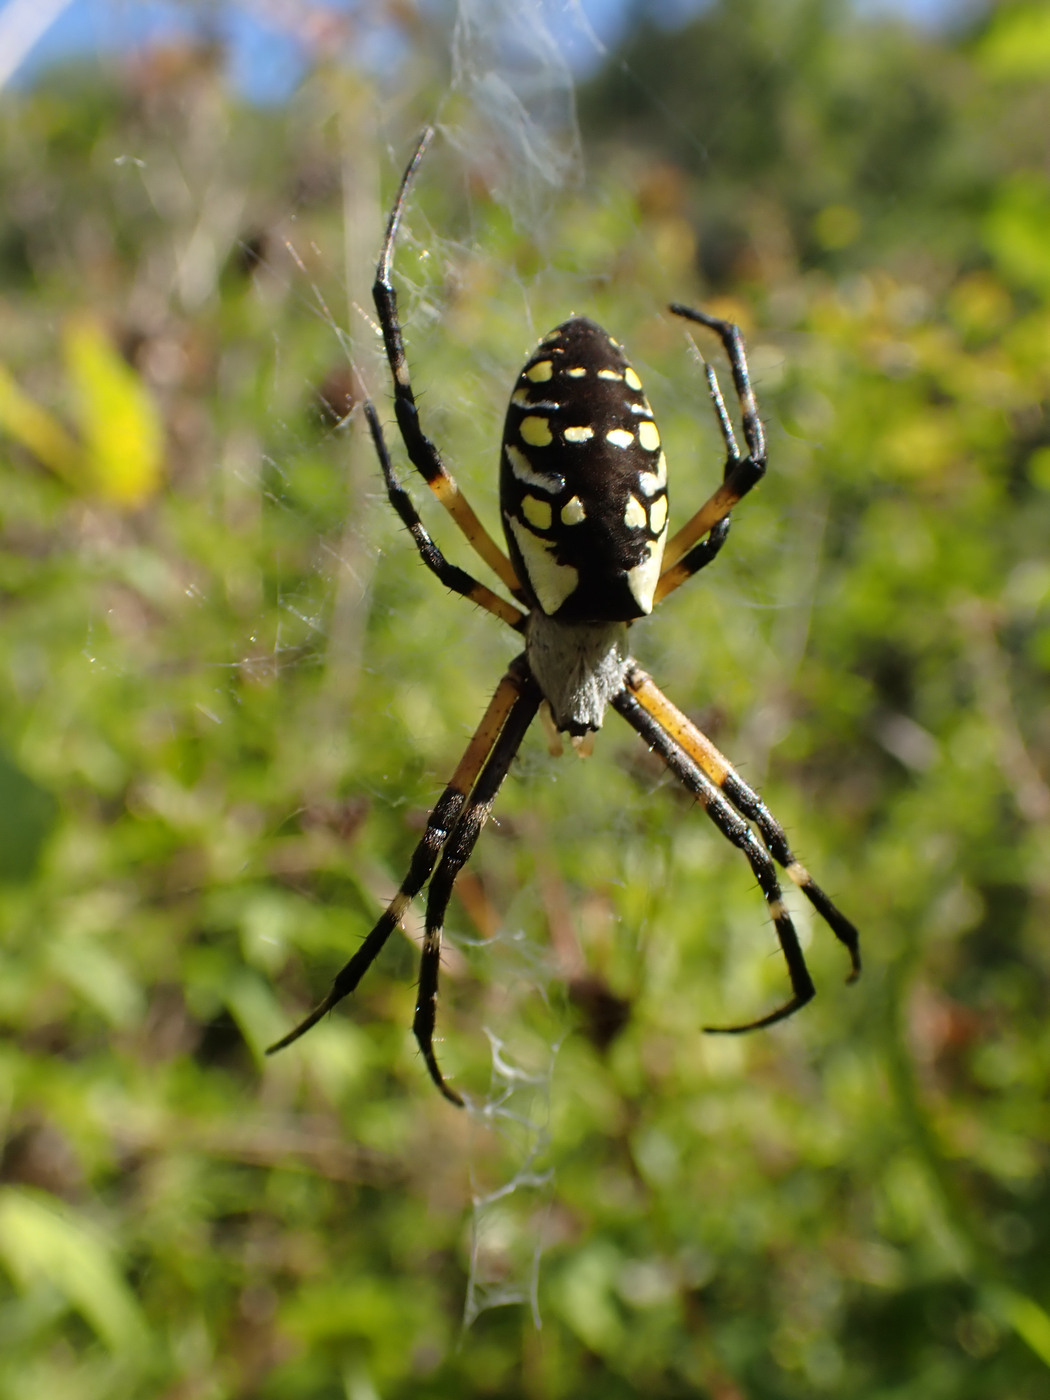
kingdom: Animalia
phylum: Arthropoda
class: Arachnida
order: Araneae
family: Araneidae
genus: Argiope
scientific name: Argiope aurantia
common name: Orb weavers
